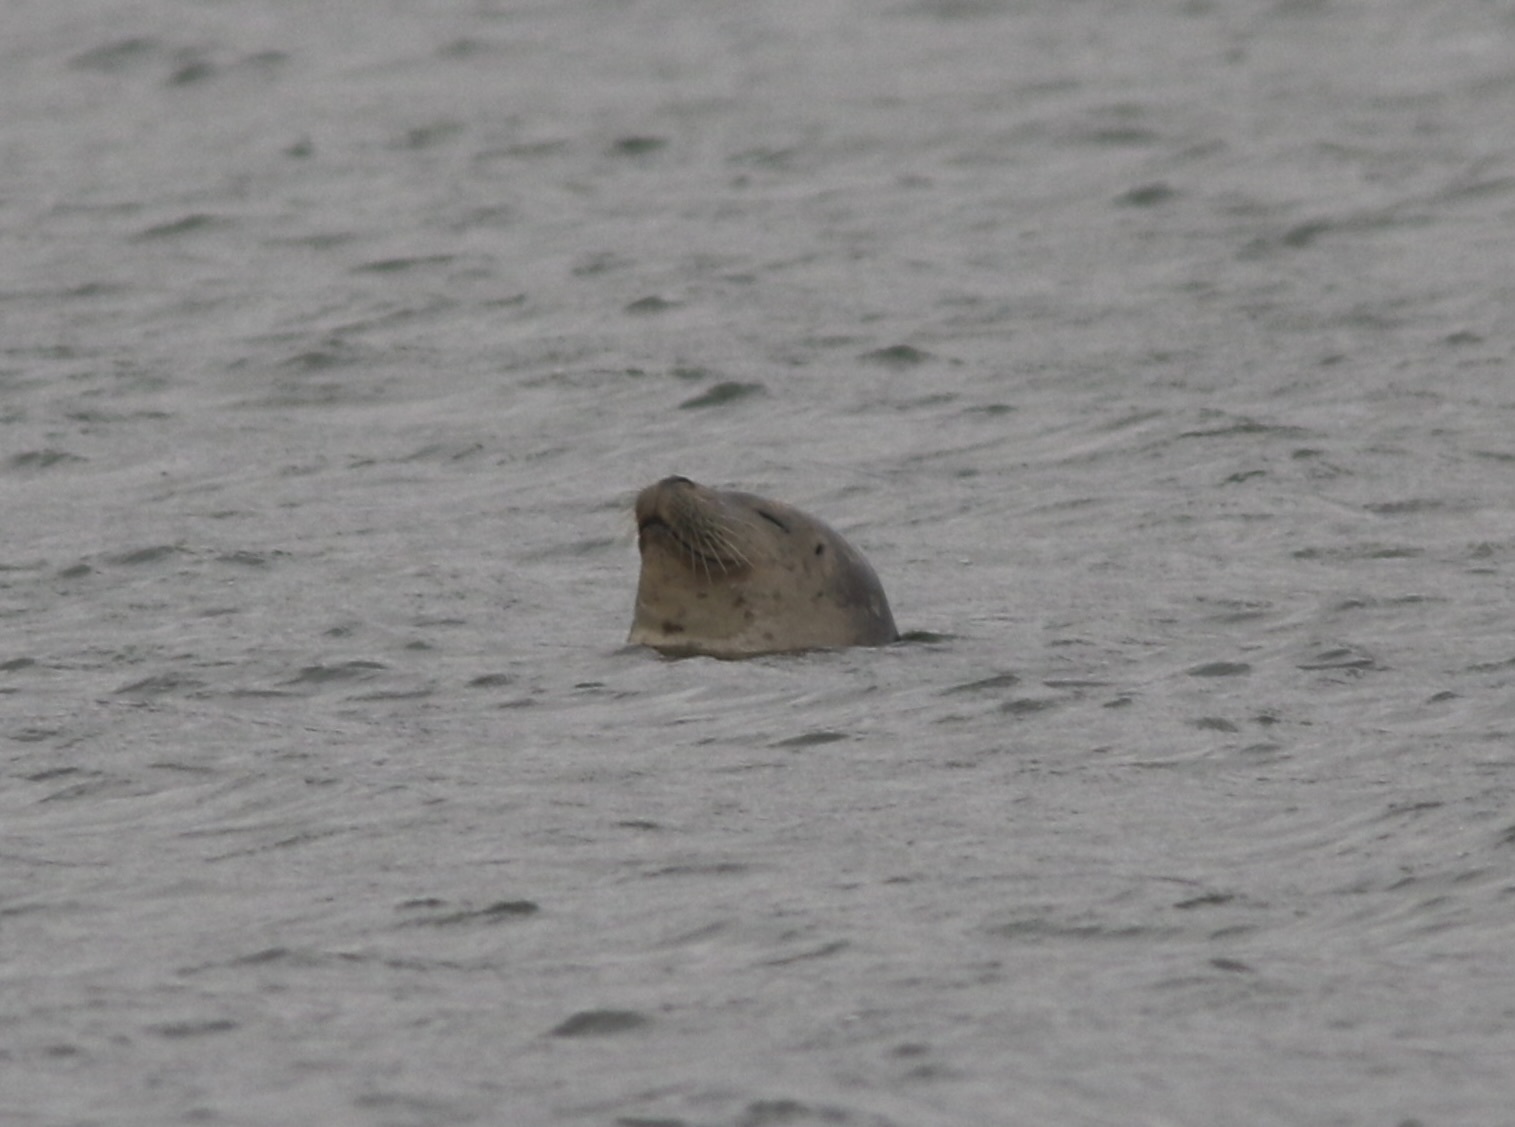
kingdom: Animalia
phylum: Chordata
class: Mammalia
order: Carnivora
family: Phocidae
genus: Phoca
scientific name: Phoca vitulina
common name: Harbor seal
